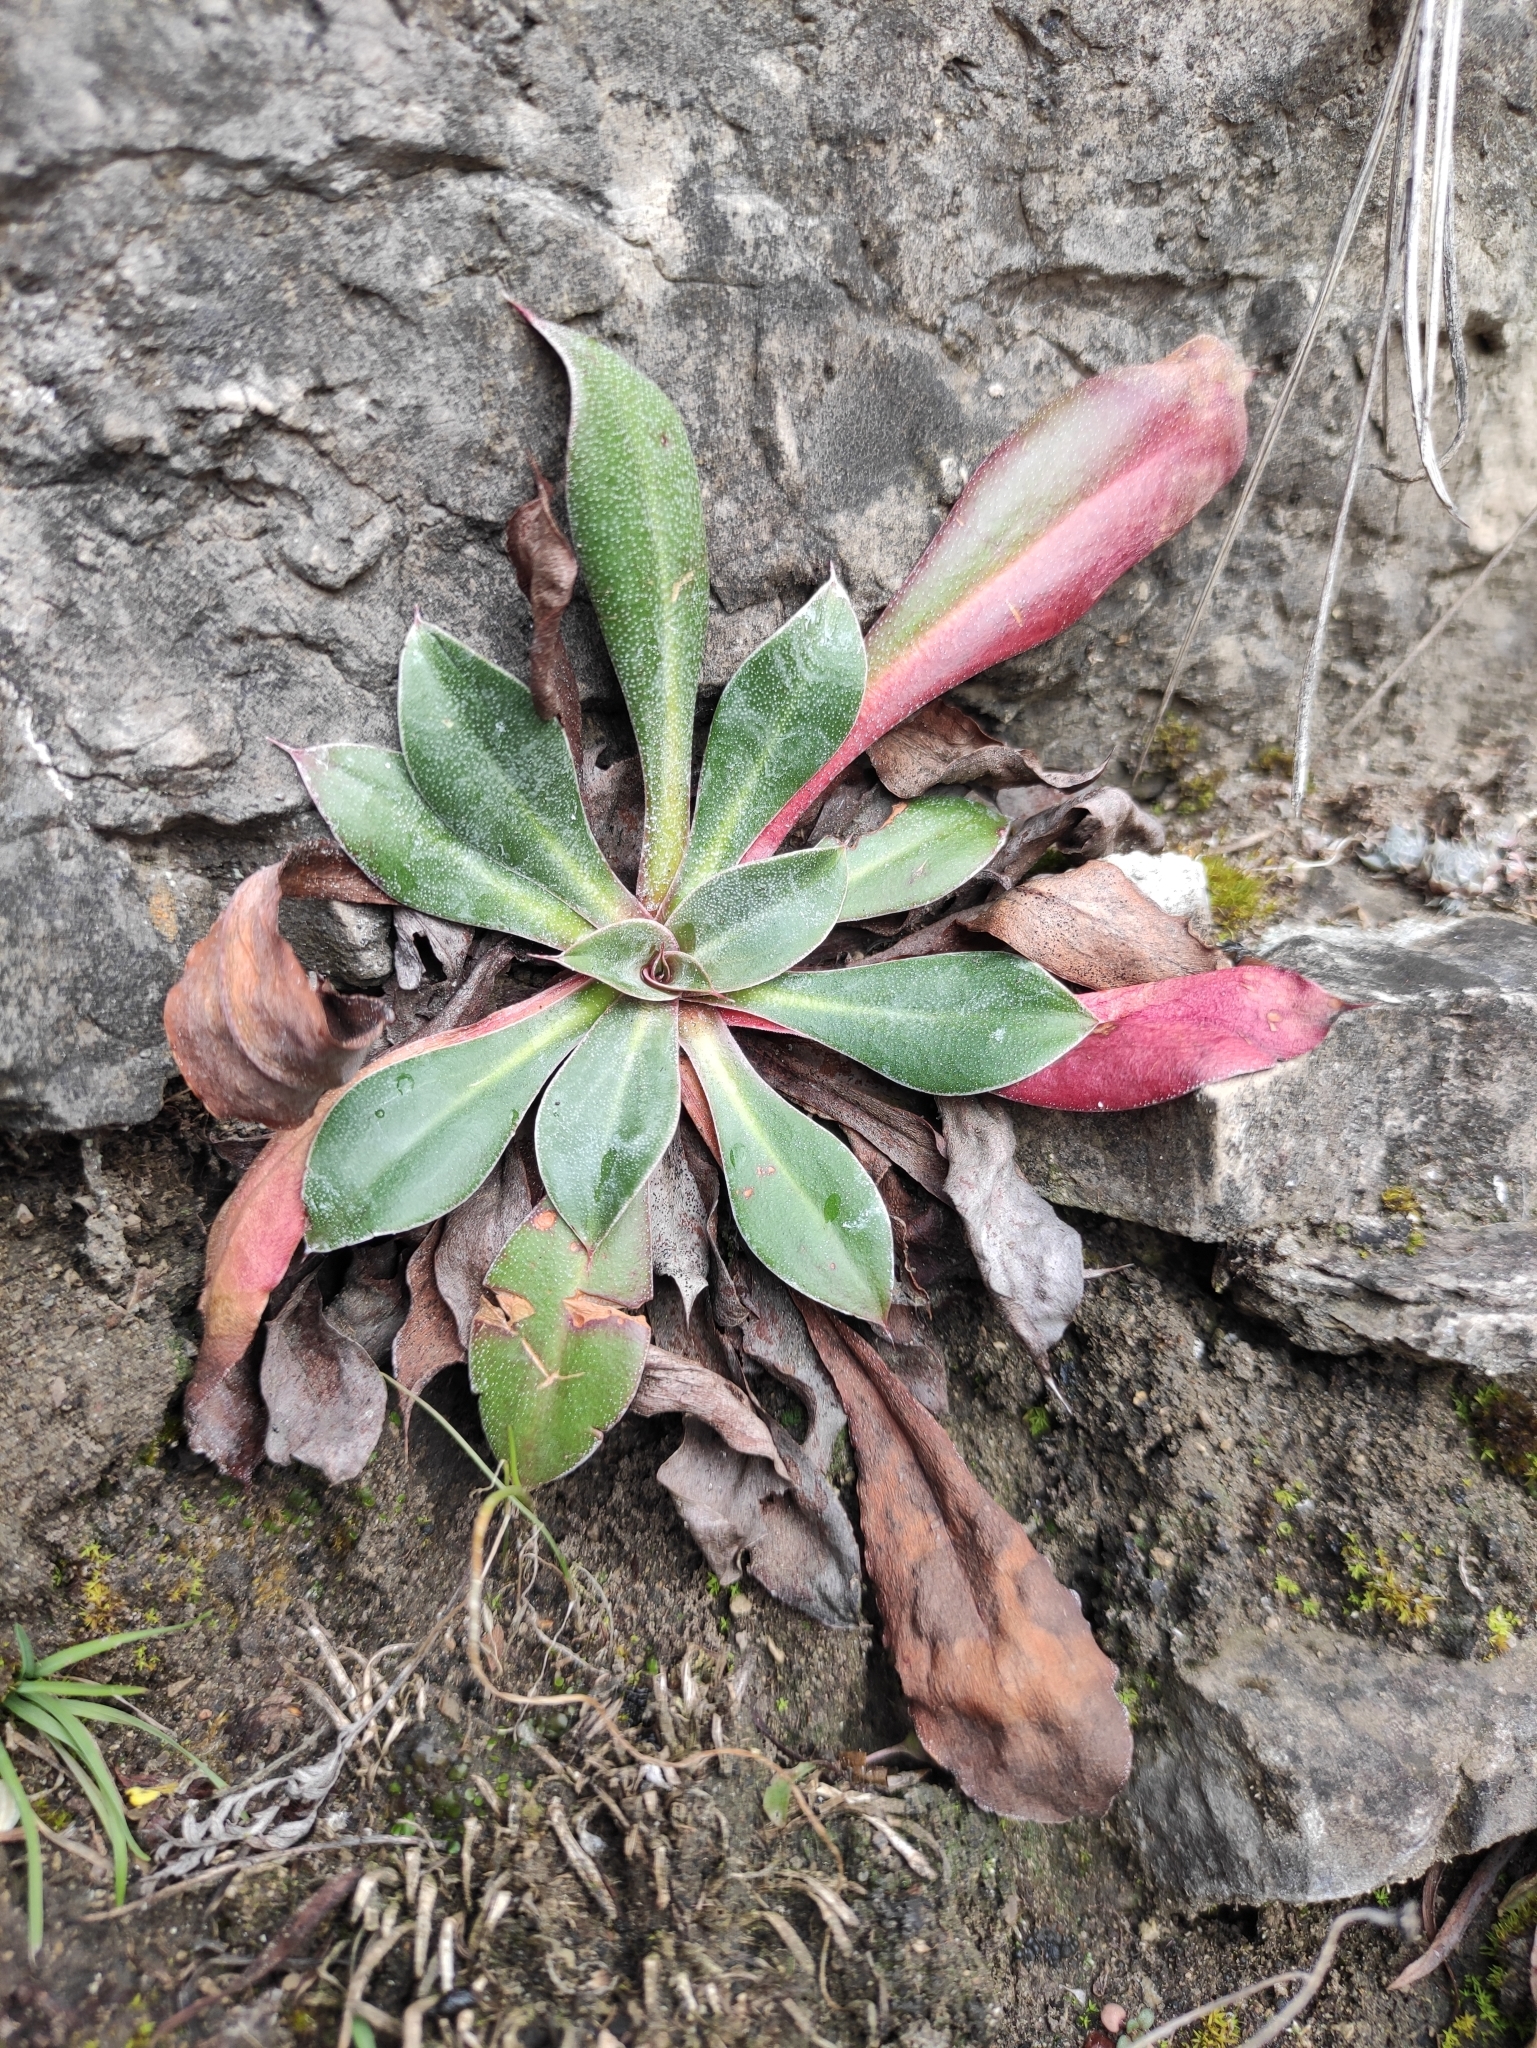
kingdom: Plantae
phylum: Tracheophyta
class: Magnoliopsida
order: Caryophyllales
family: Plumbaginaceae
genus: Goniolimon
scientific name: Goniolimon speciosum
